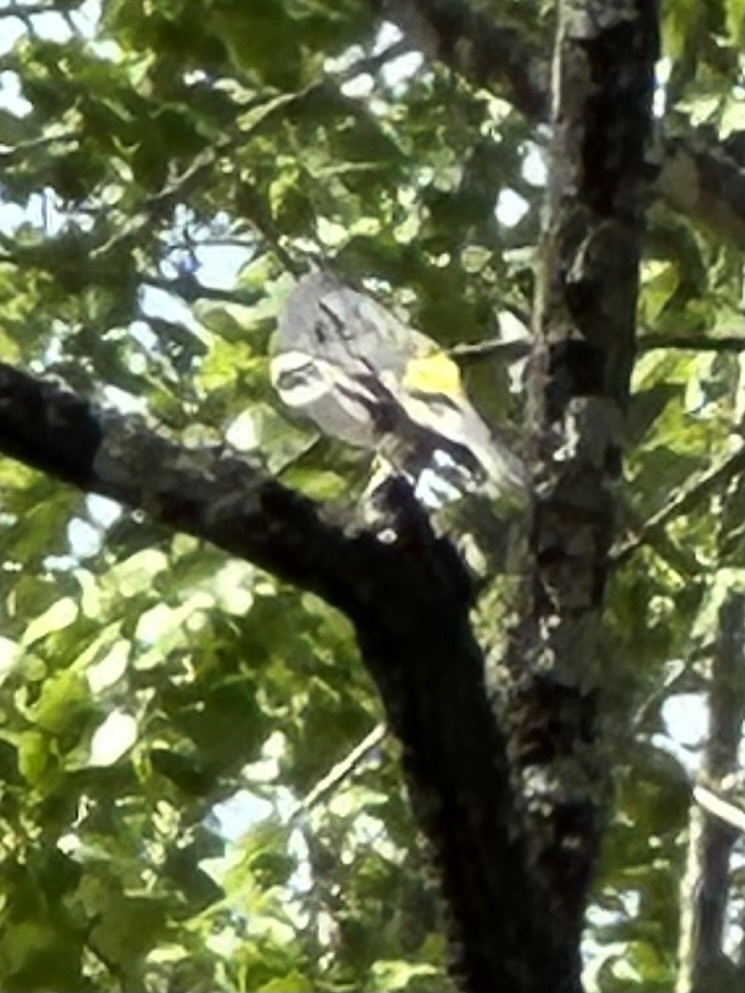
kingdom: Animalia
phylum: Chordata
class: Aves
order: Passeriformes
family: Parulidae
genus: Setophaga
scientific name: Setophaga coronata
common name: Myrtle warbler
